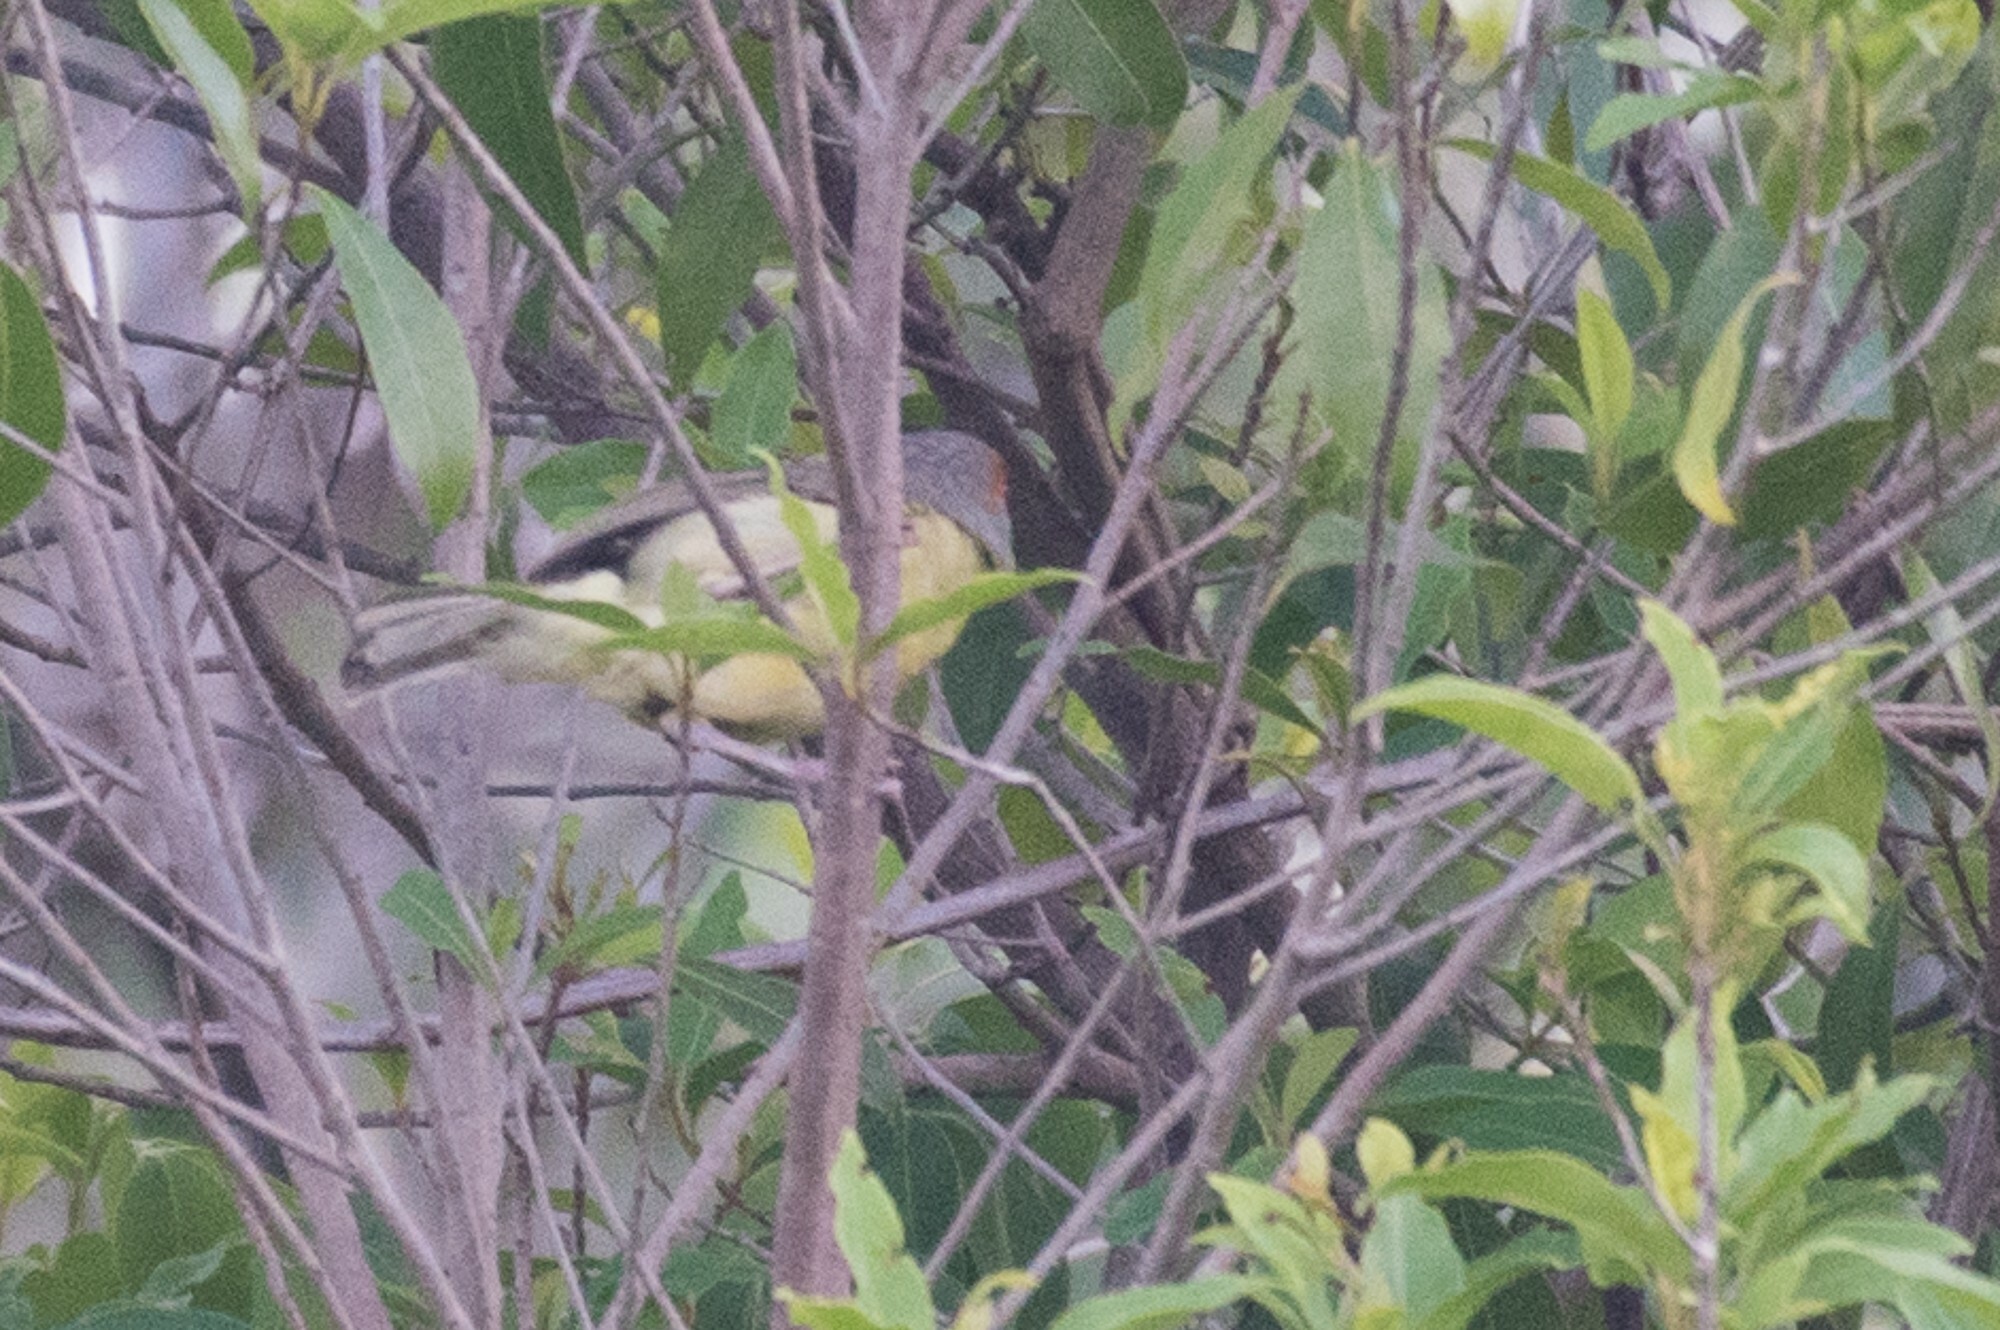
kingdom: Animalia
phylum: Chordata
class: Aves
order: Passeriformes
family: Vireonidae
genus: Cyclarhis
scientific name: Cyclarhis gujanensis
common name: Rufous-browed peppershrike
